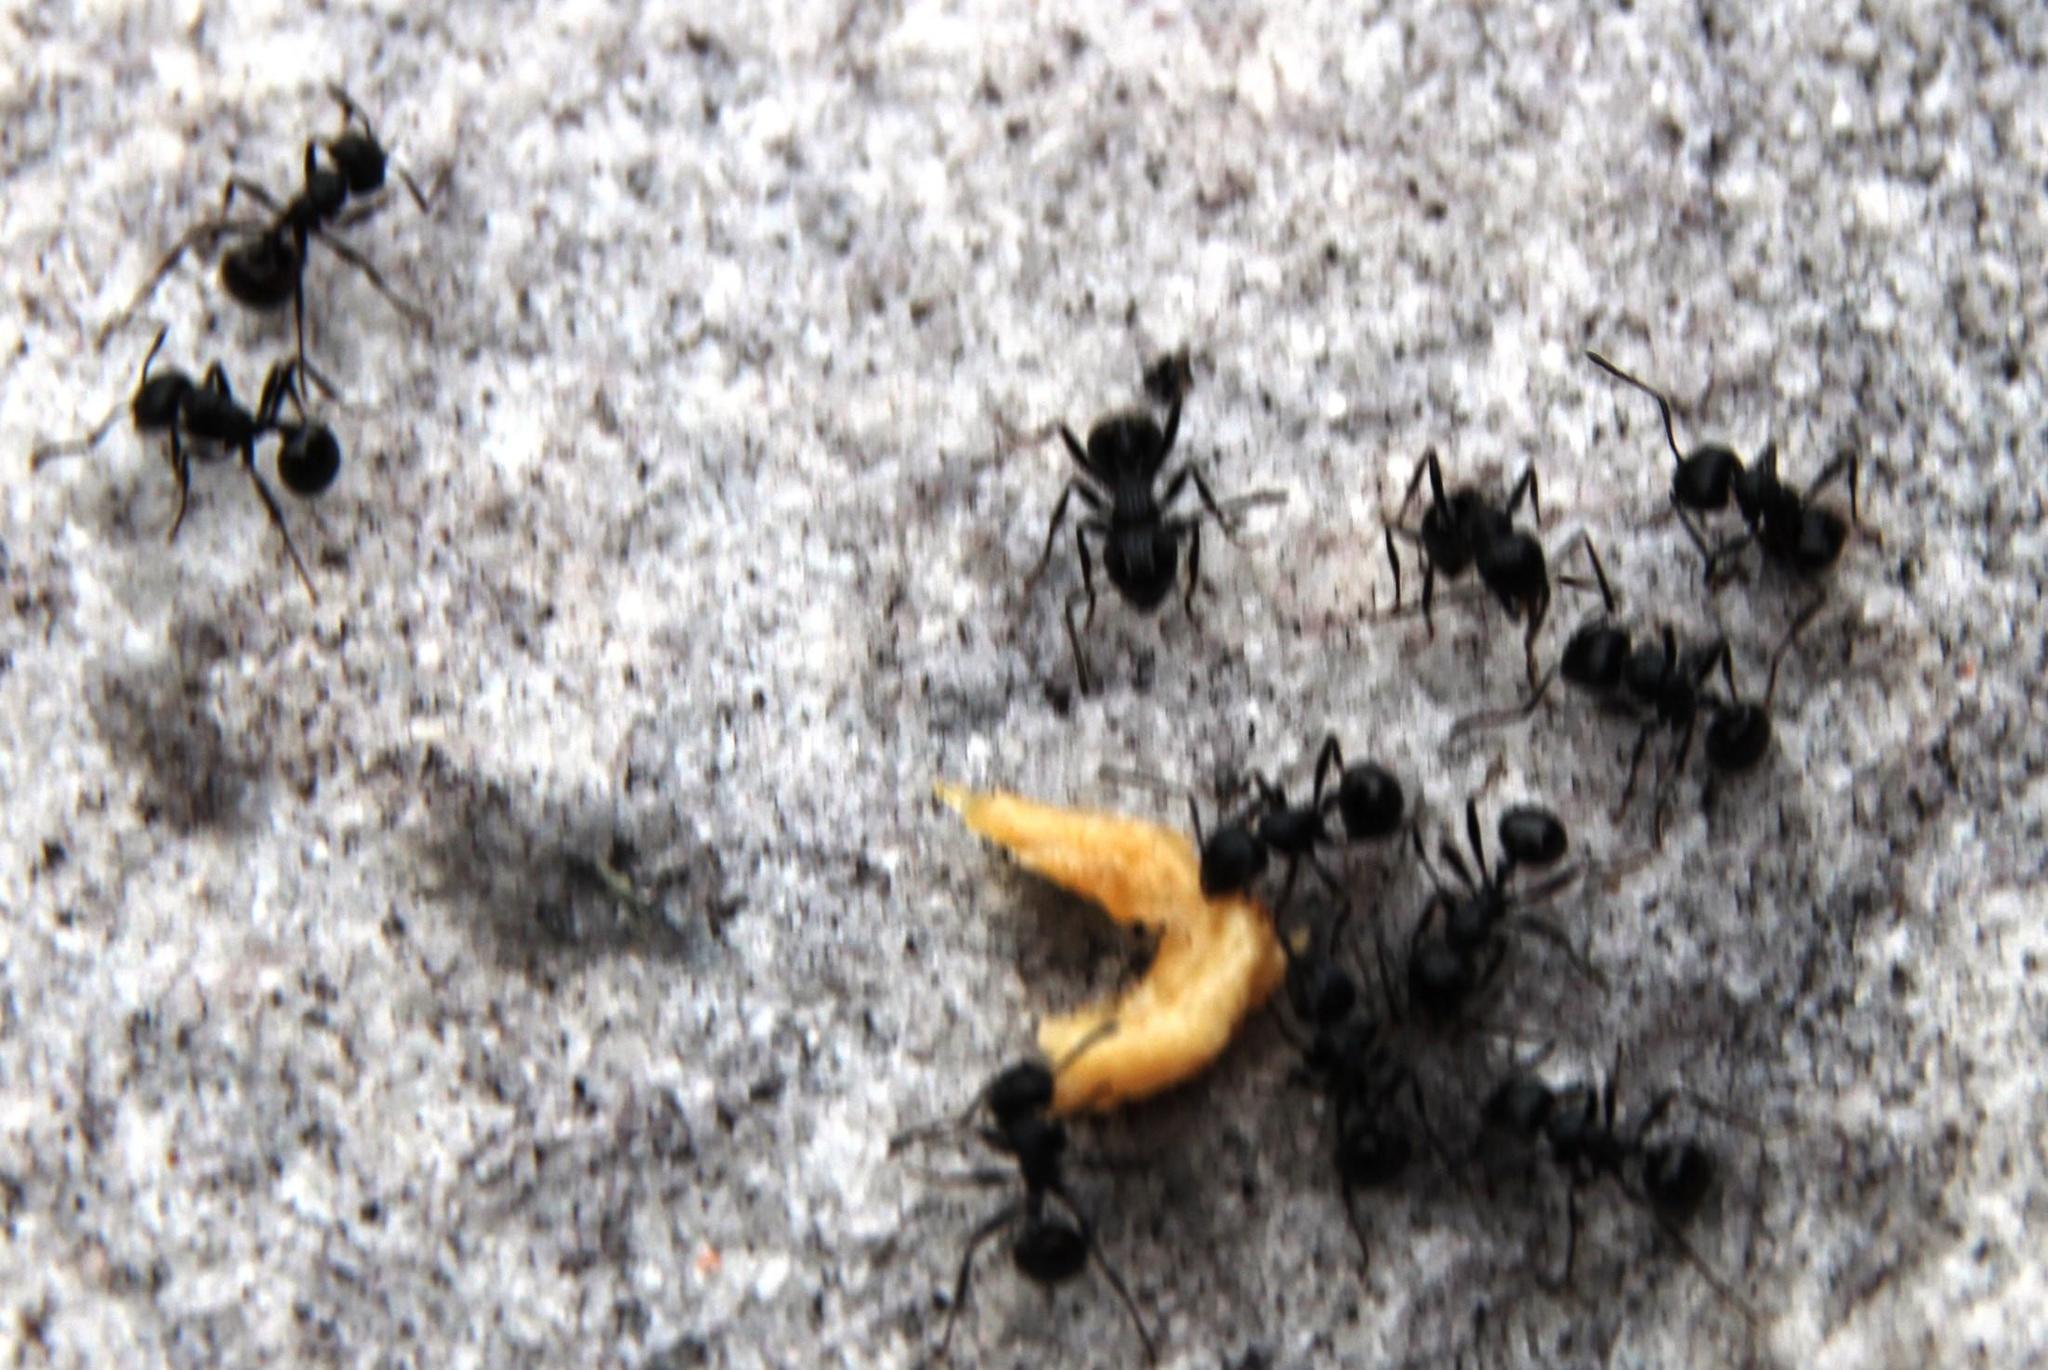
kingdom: Animalia
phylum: Arthropoda
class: Insecta
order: Hymenoptera
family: Formicidae
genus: Myrmicaria
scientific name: Myrmicaria nigra
